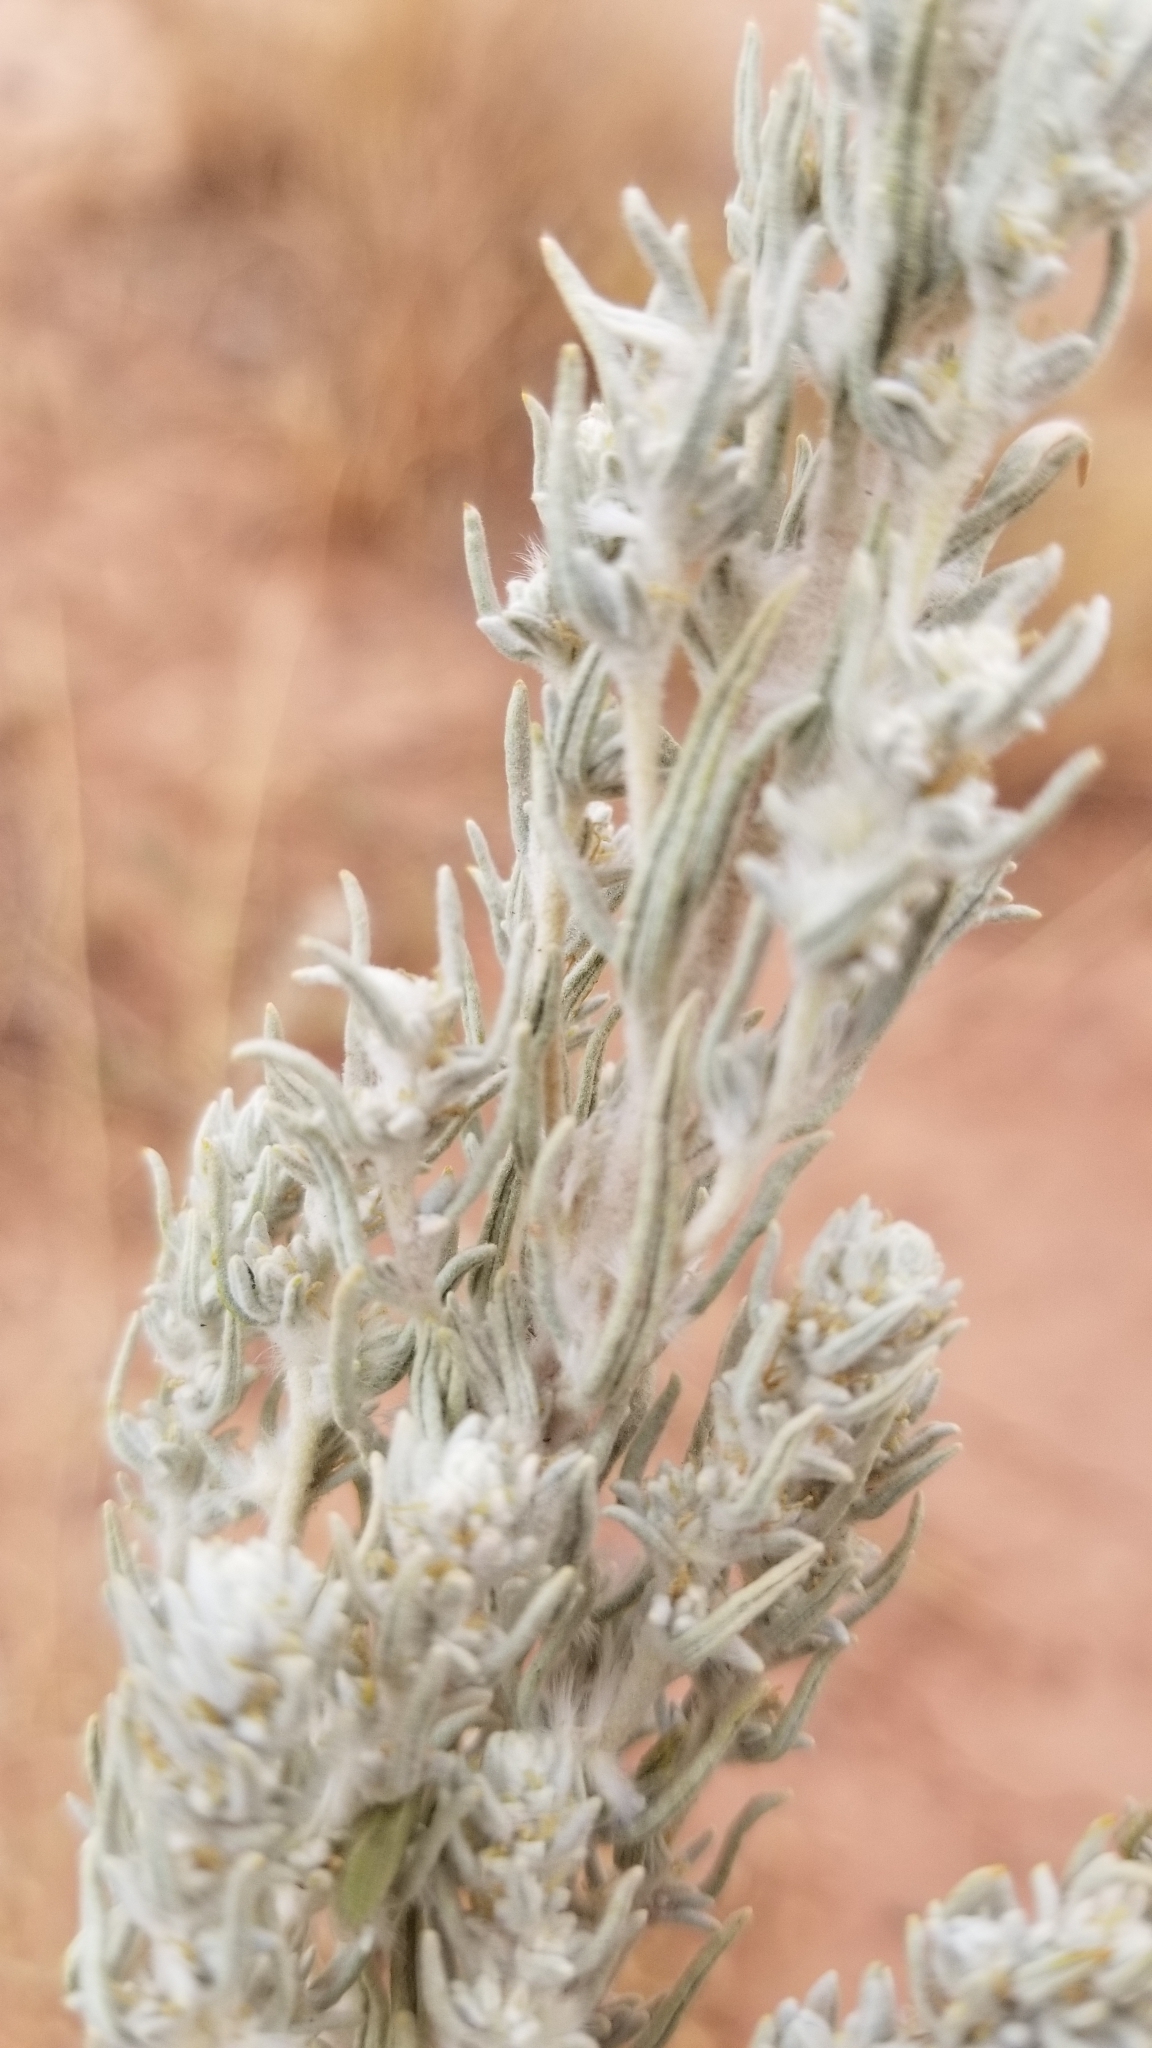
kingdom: Plantae
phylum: Tracheophyta
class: Magnoliopsida
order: Caryophyllales
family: Amaranthaceae
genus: Krascheninnikovia
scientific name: Krascheninnikovia lanata
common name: Winterfat
